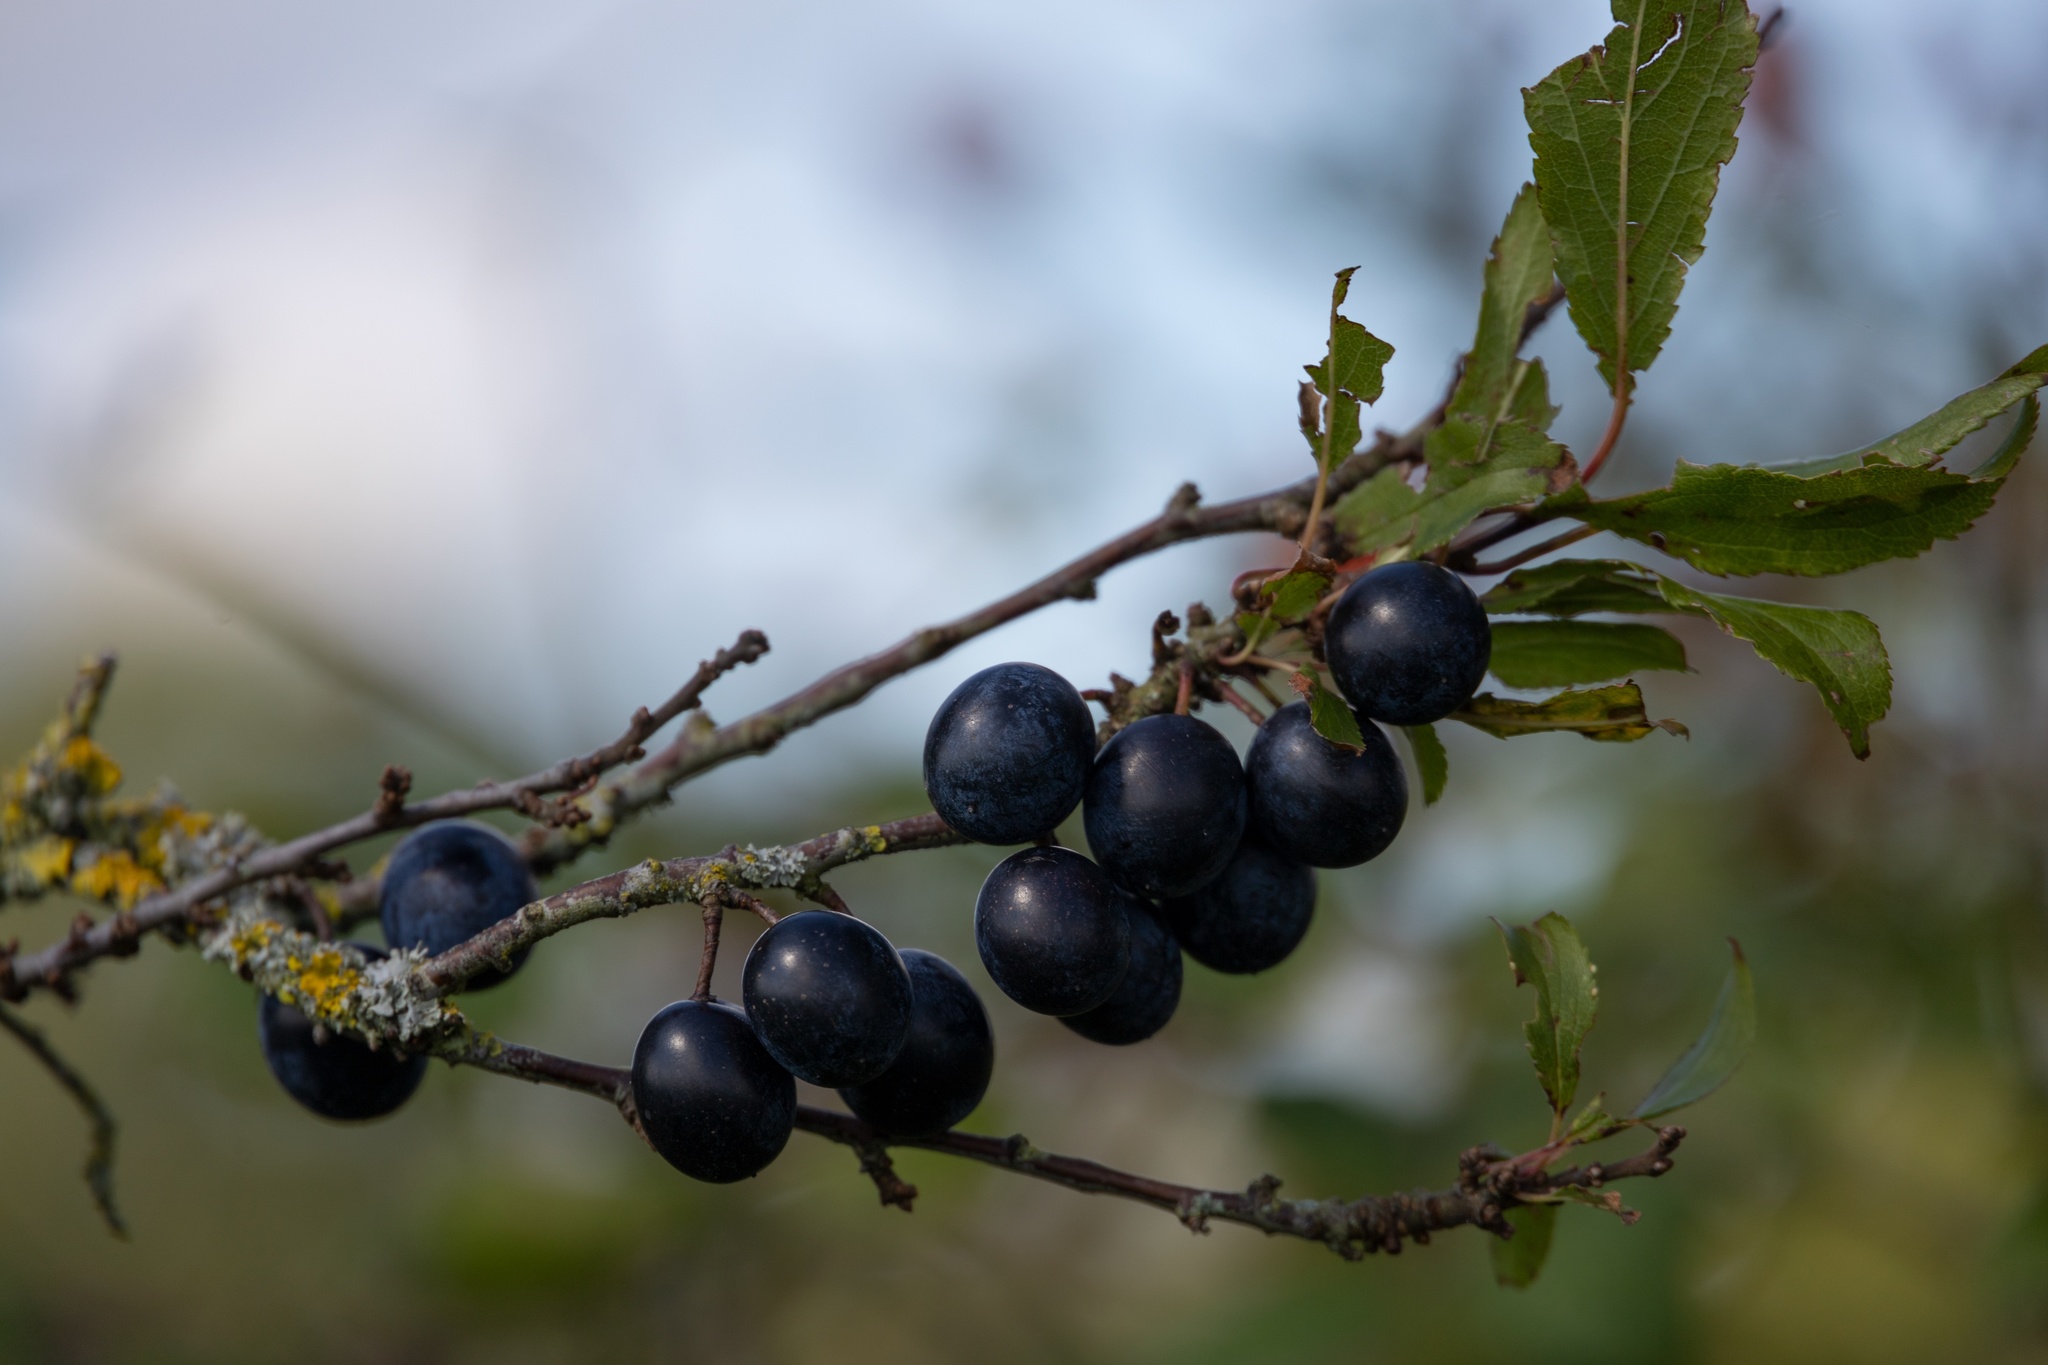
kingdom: Plantae
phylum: Tracheophyta
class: Magnoliopsida
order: Rosales
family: Rosaceae
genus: Prunus
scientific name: Prunus spinosa
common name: Blackthorn
